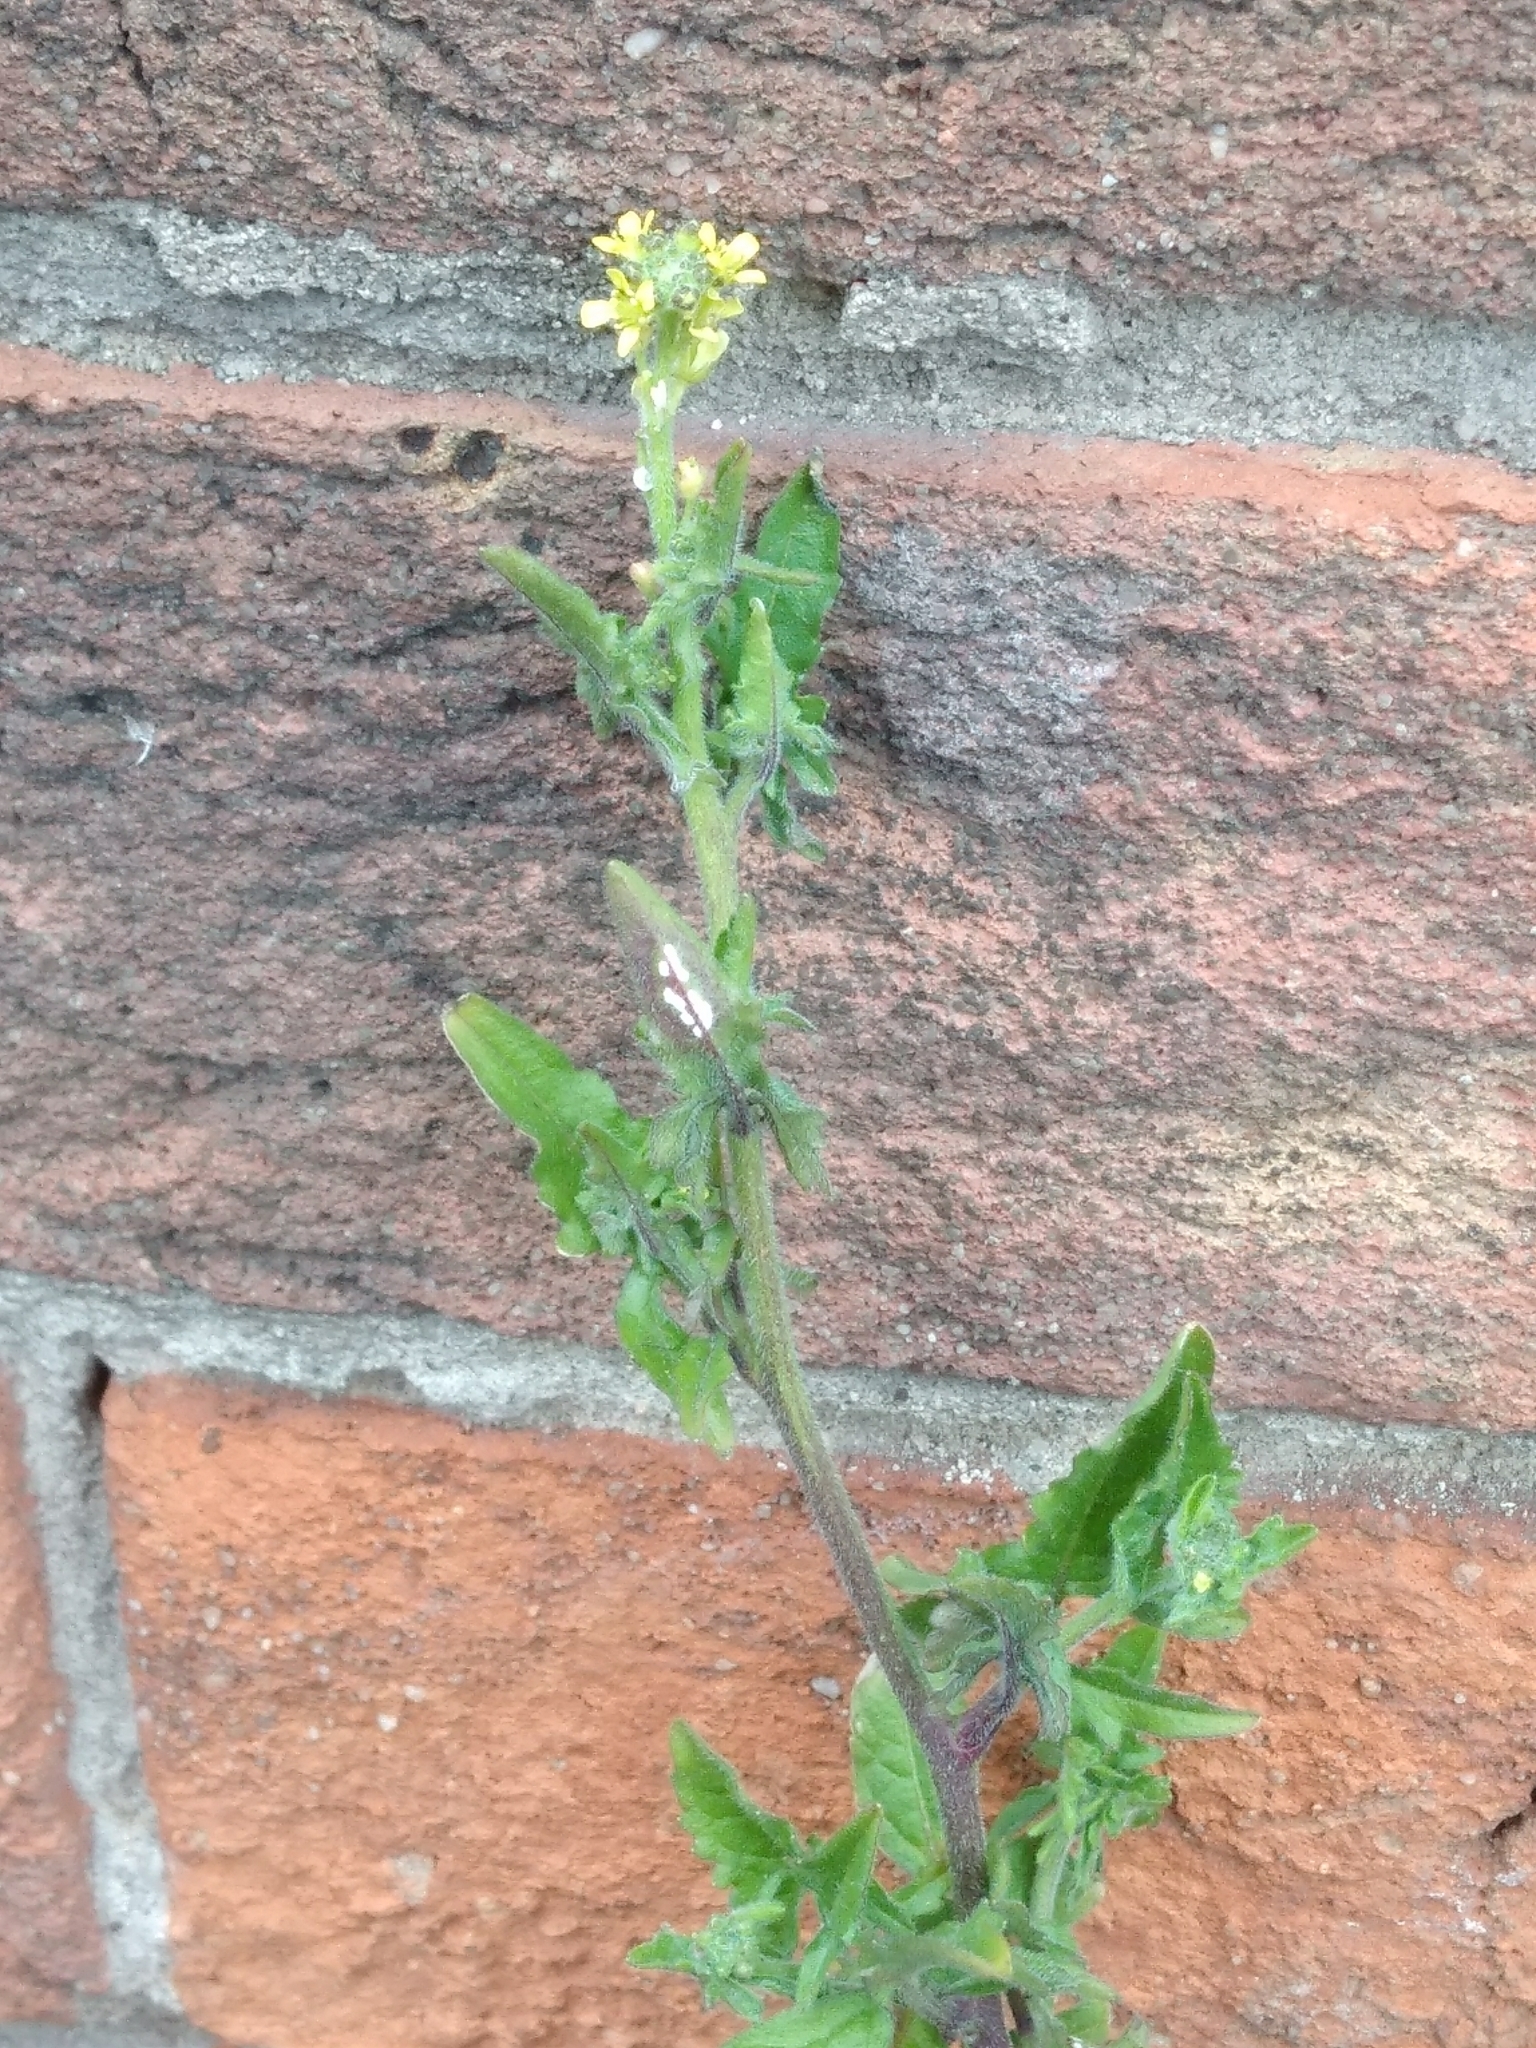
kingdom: Plantae
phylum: Tracheophyta
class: Magnoliopsida
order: Brassicales
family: Brassicaceae
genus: Sisymbrium
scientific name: Sisymbrium officinale
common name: Hedge mustard
